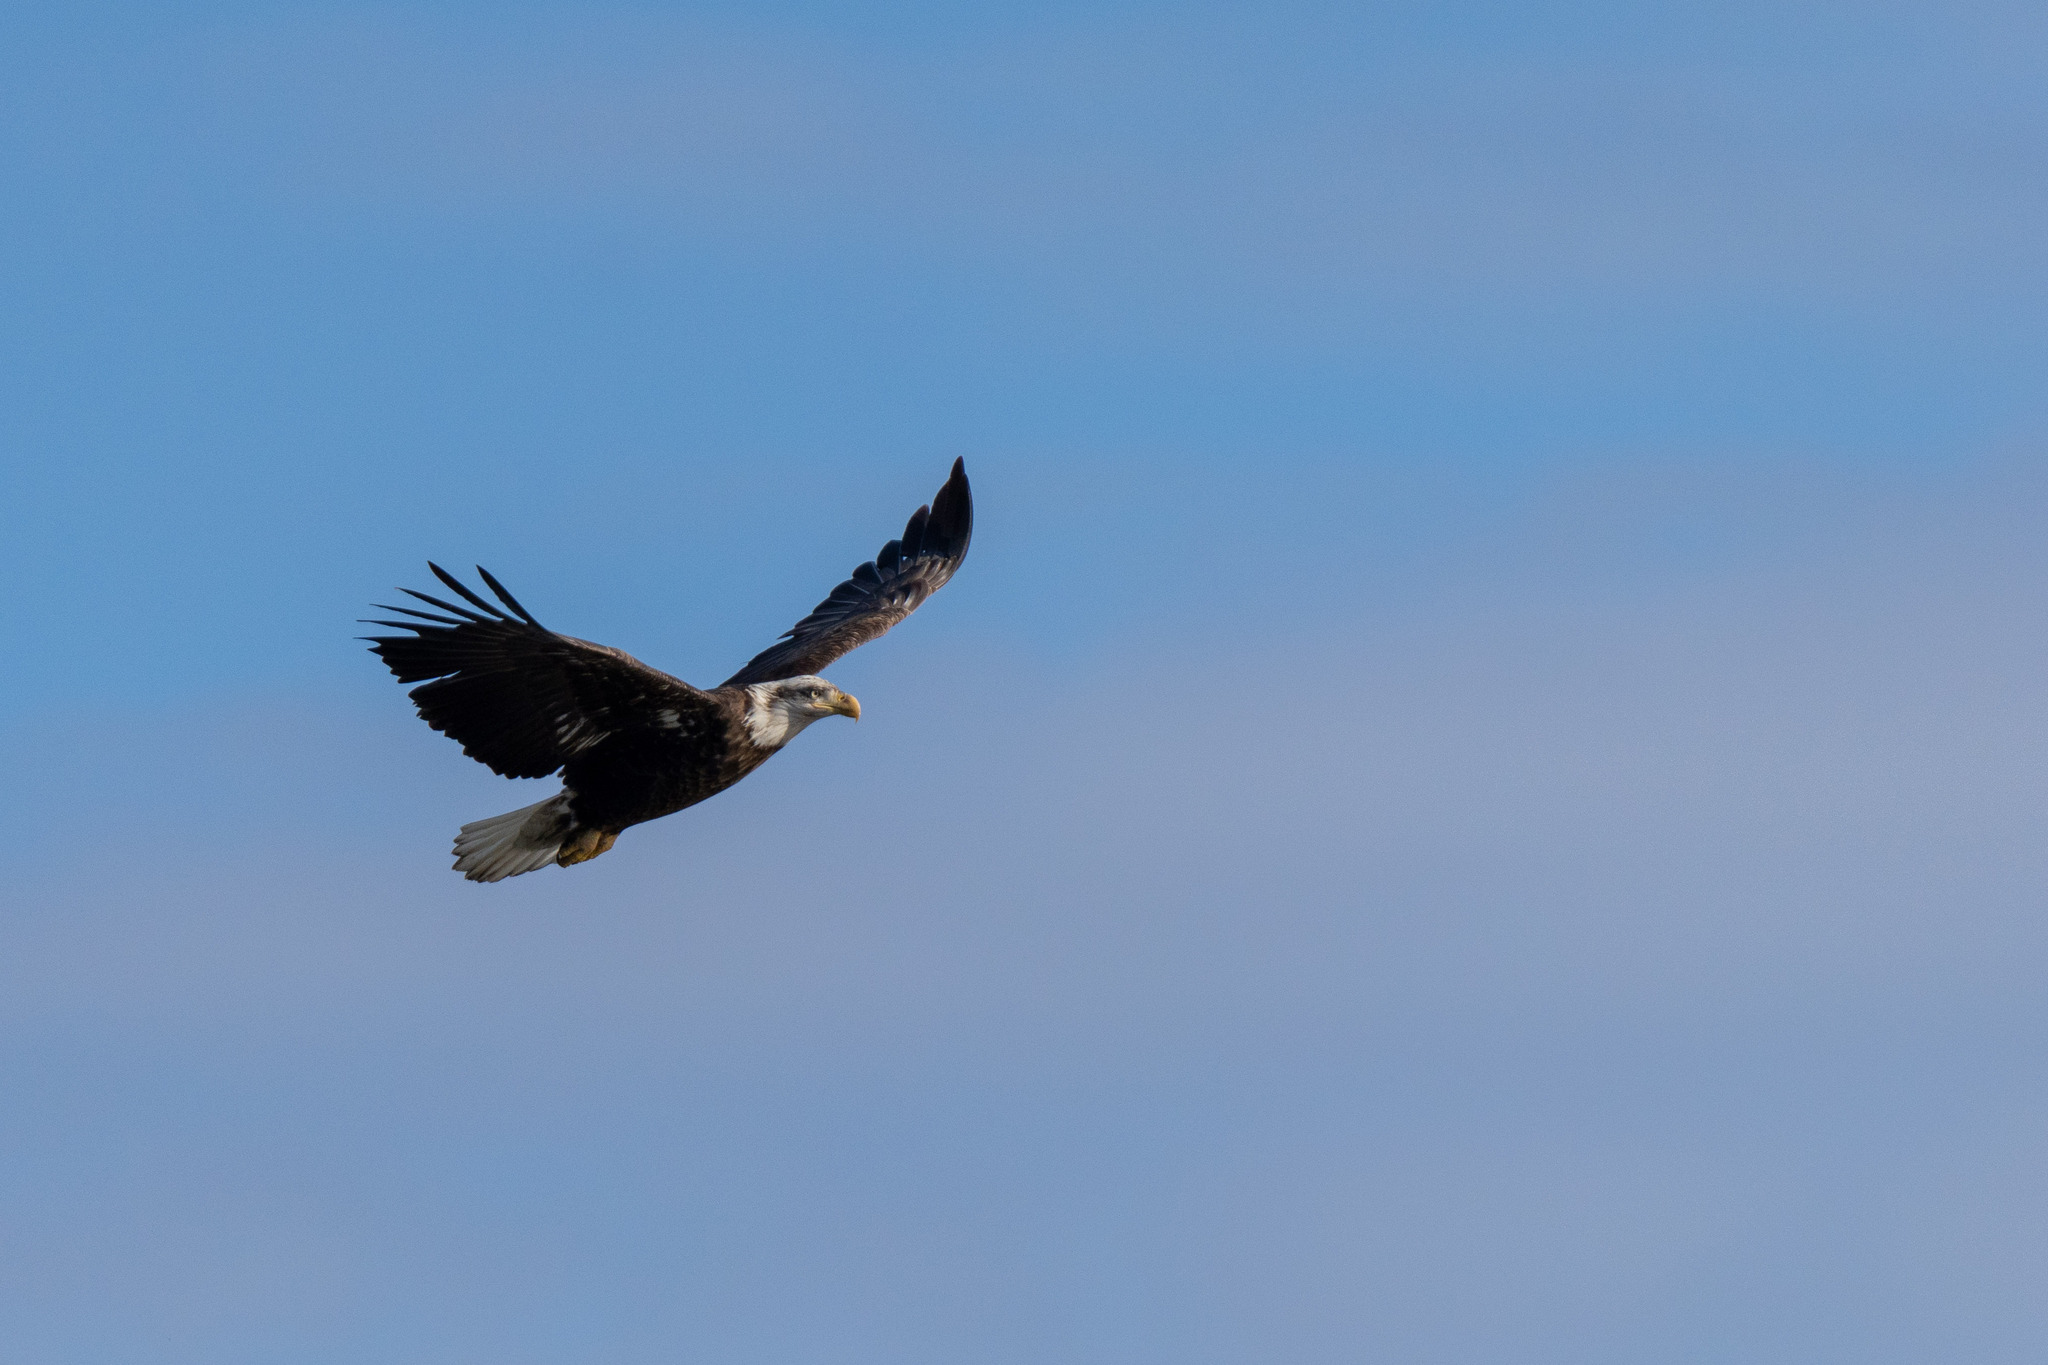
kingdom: Animalia
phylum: Chordata
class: Aves
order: Accipitriformes
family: Accipitridae
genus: Haliaeetus
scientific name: Haliaeetus leucocephalus
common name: Bald eagle
